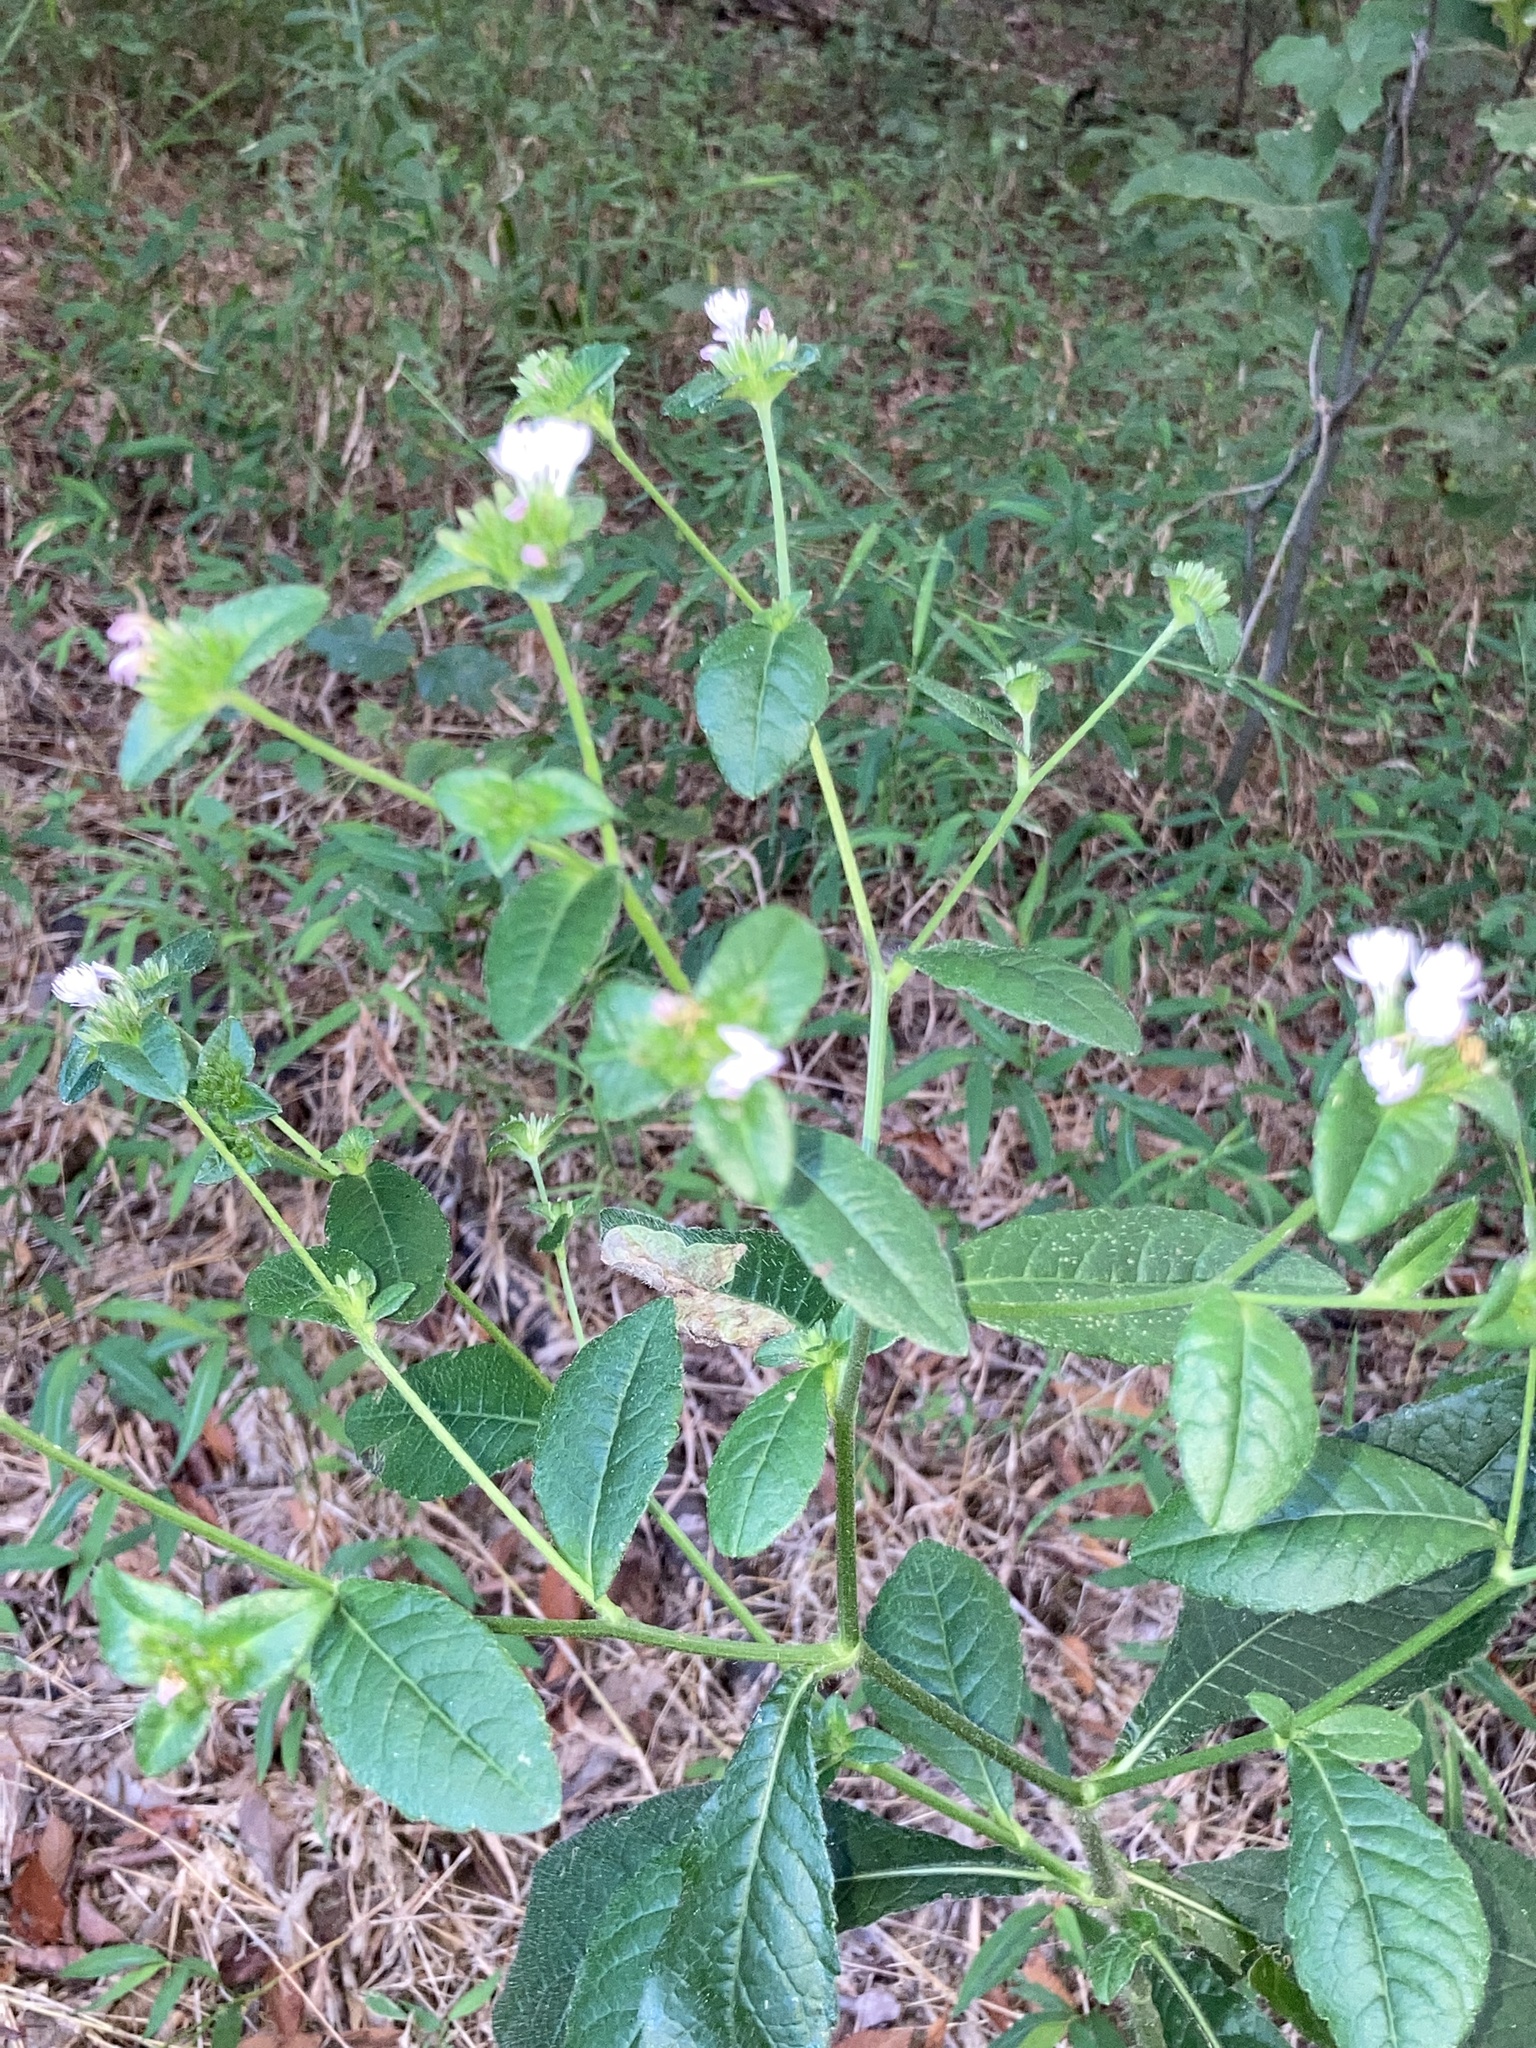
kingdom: Plantae
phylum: Tracheophyta
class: Magnoliopsida
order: Asterales
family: Asteraceae
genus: Elephantopus
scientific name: Elephantopus carolinianus
